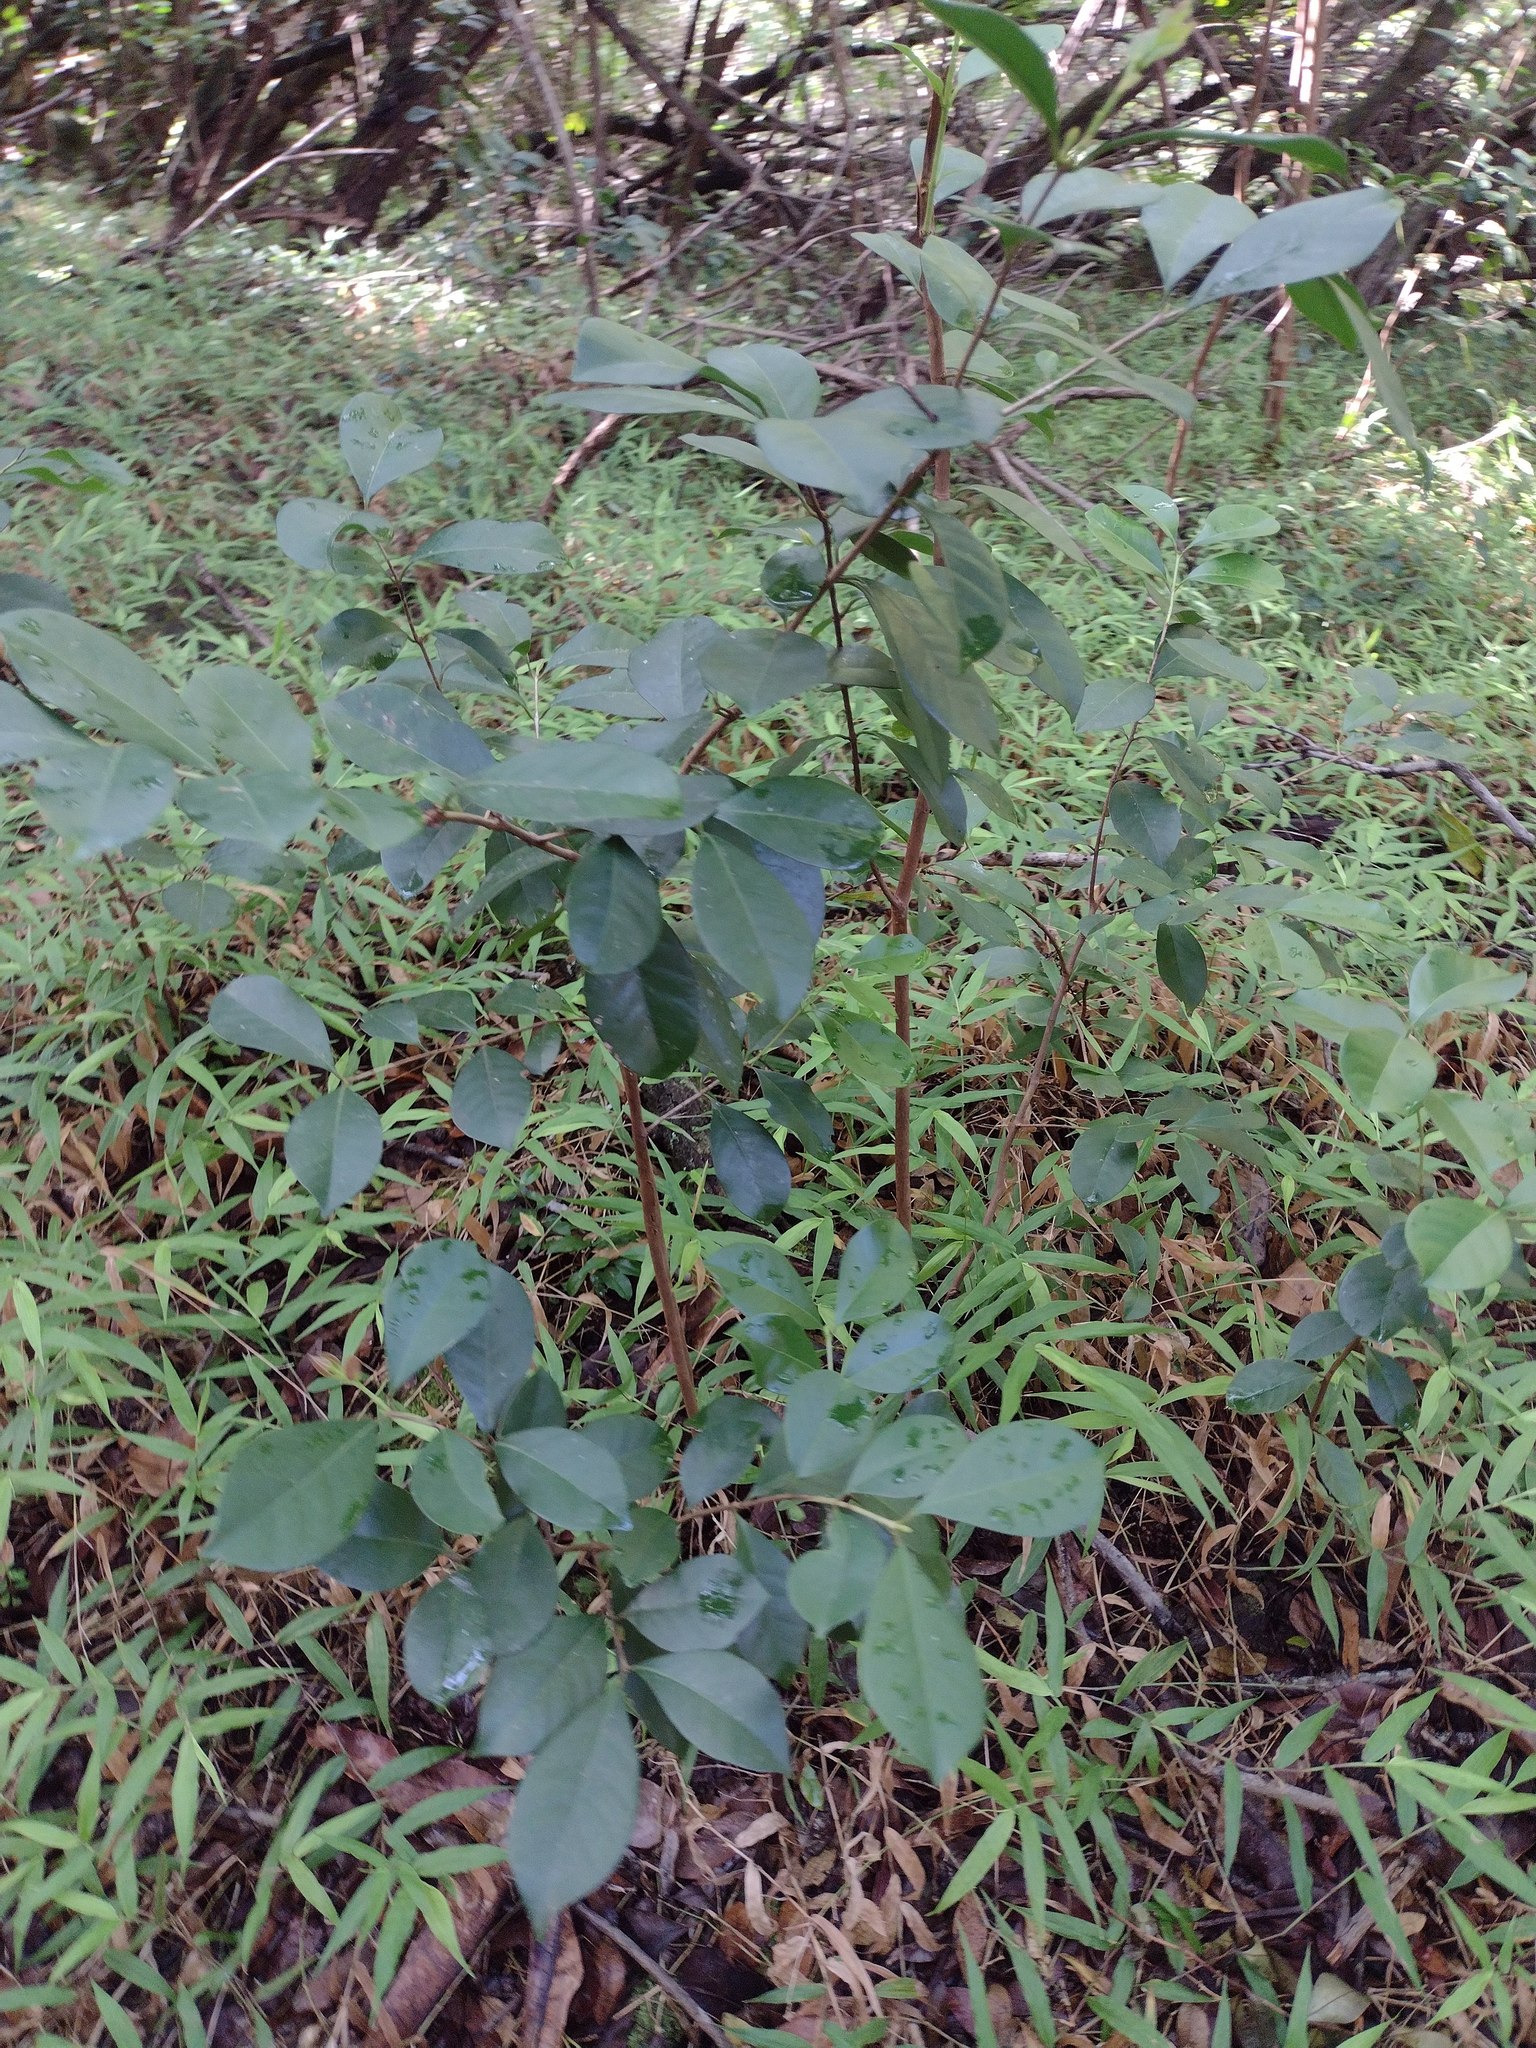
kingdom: Plantae
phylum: Tracheophyta
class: Magnoliopsida
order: Myrtales
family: Myrtaceae
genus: Psidium
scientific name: Psidium cattleianum
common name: Strawberry guava
